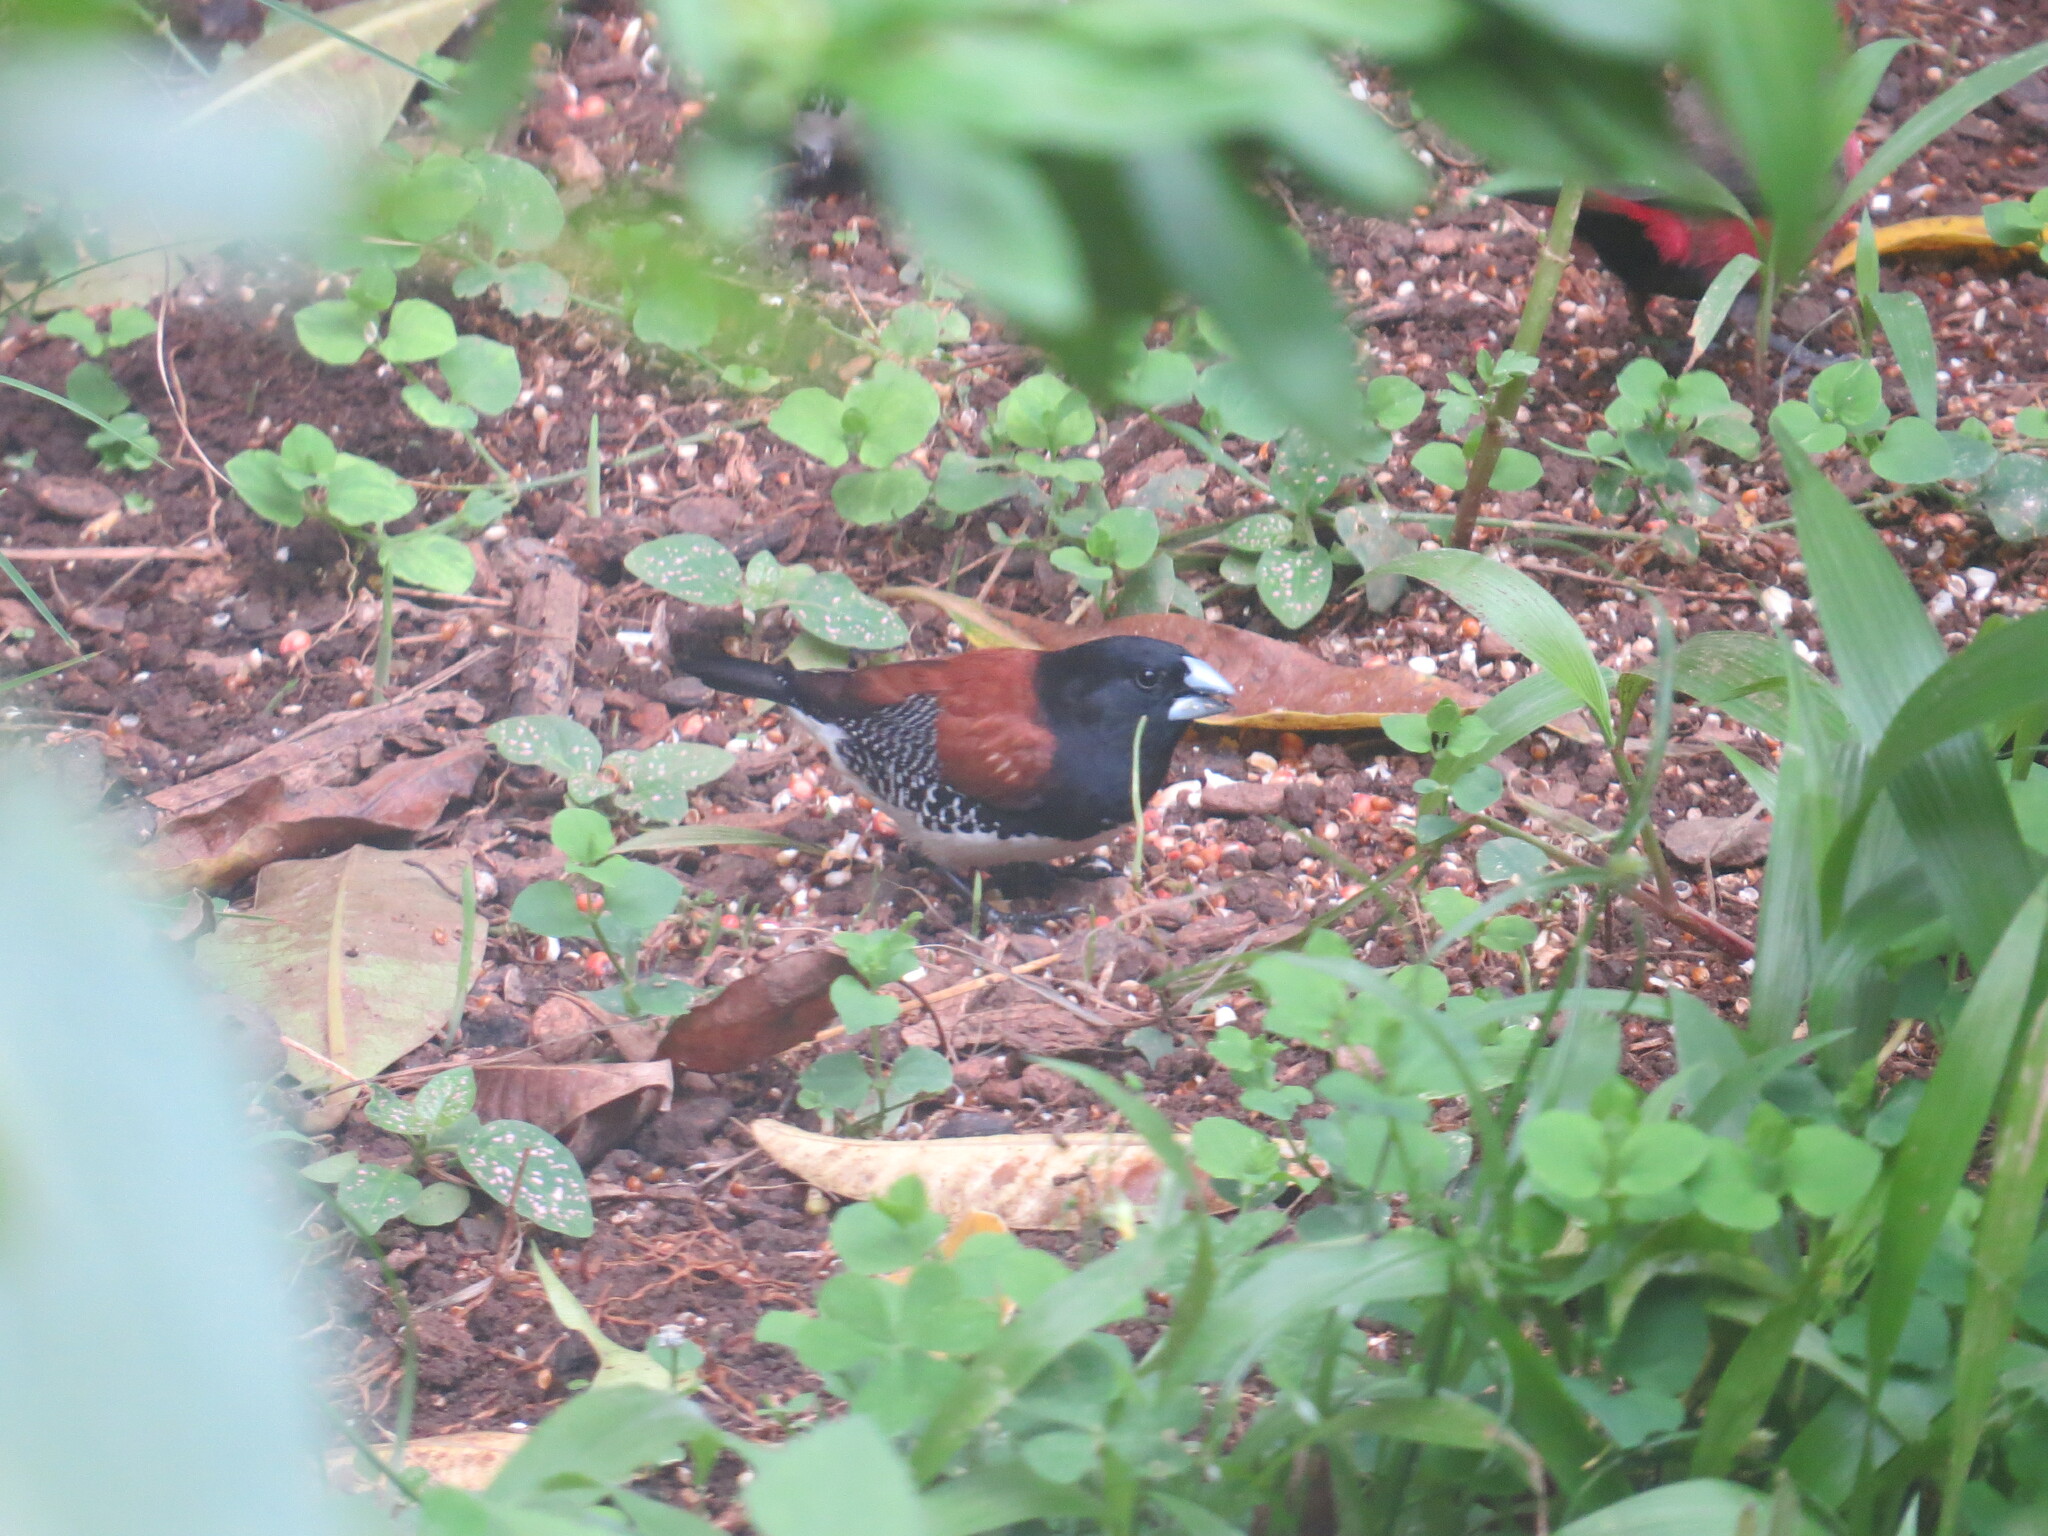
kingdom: Animalia
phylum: Chordata
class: Aves
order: Passeriformes
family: Estrildidae
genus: Lonchura
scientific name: Lonchura nigriceps
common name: Red-backed mannikin
